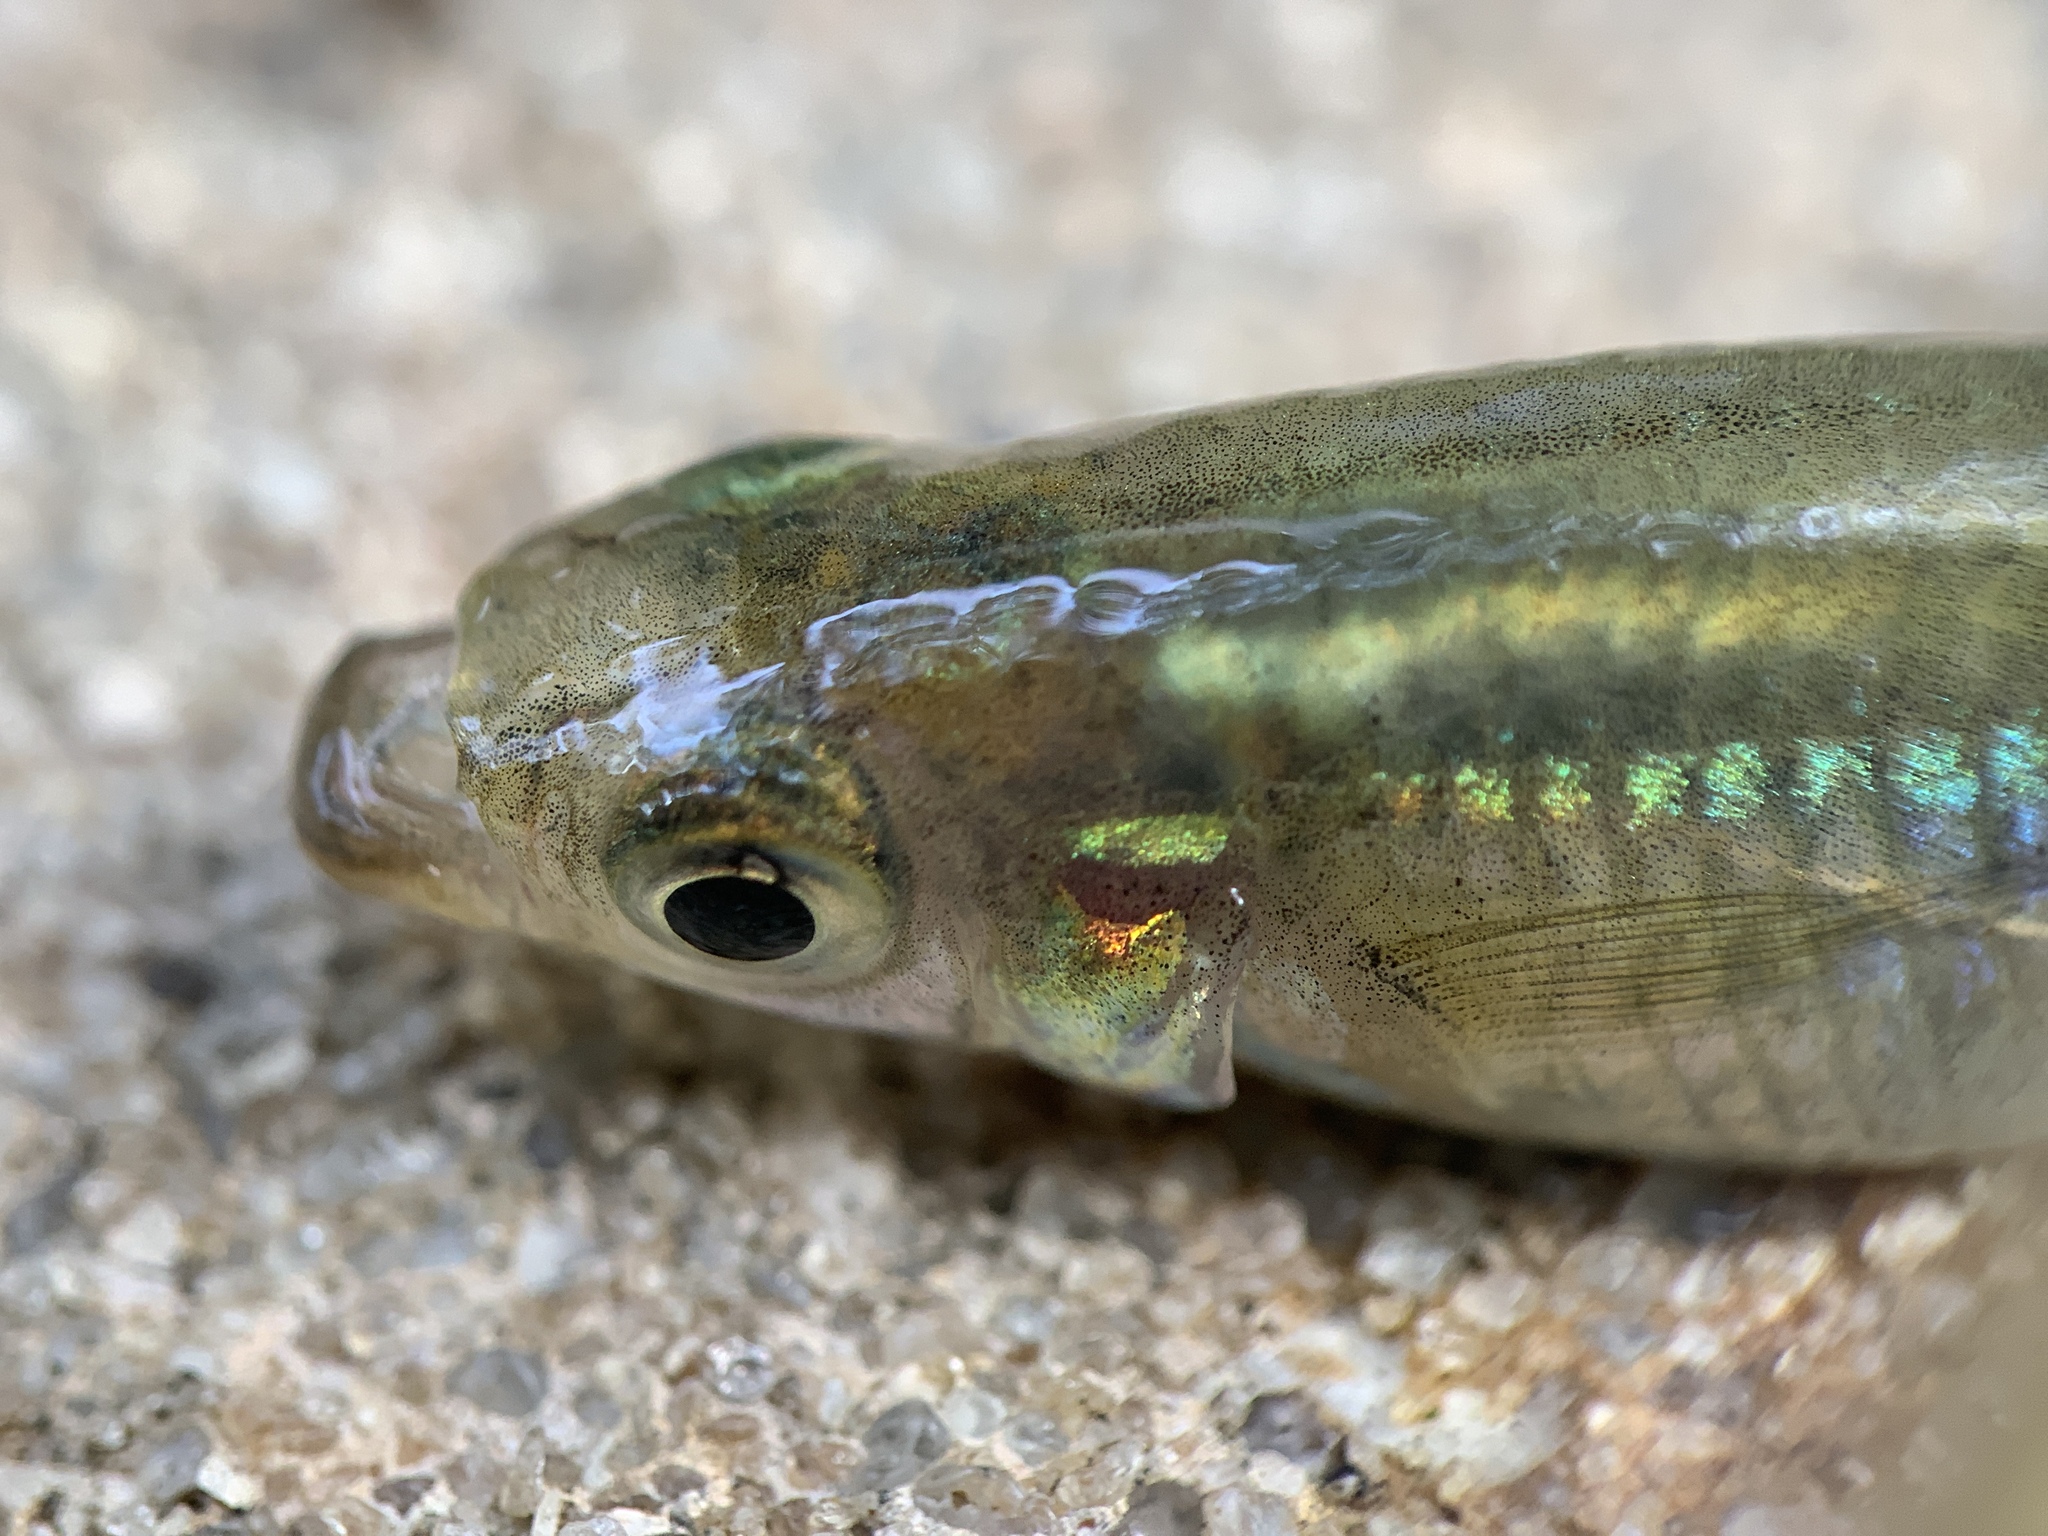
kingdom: Animalia
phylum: Chordata
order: Cyprinodontiformes
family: Poeciliidae
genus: Gambusia
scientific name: Gambusia holbrooki
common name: Eastern mosquitofish
